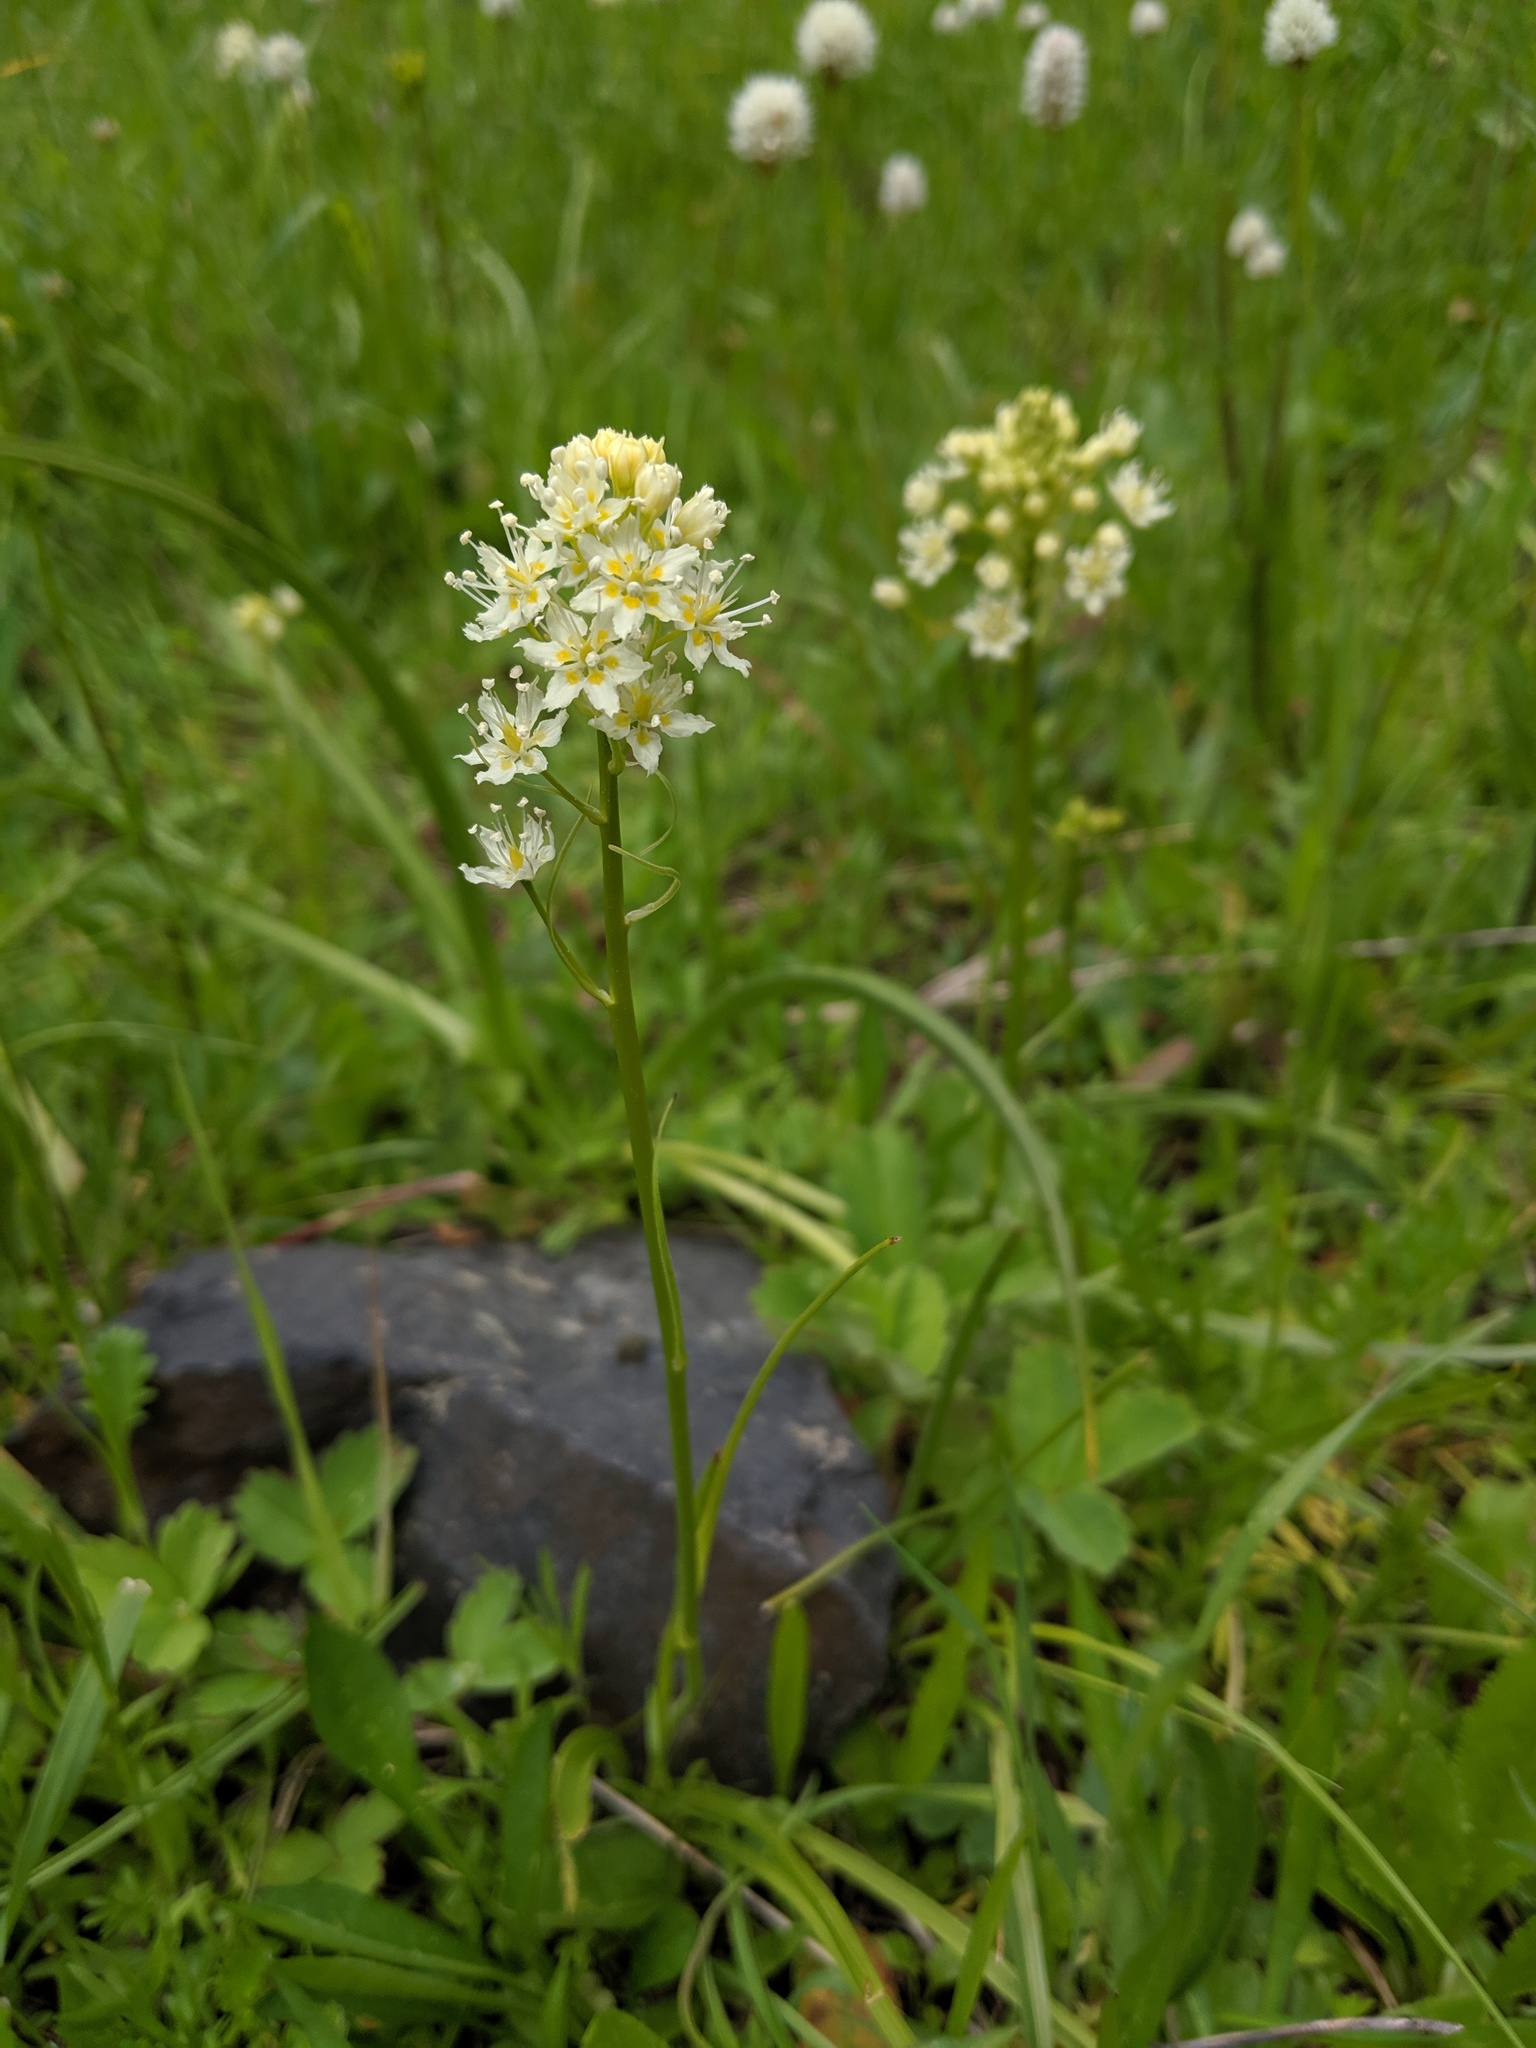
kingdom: Plantae
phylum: Tracheophyta
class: Liliopsida
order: Liliales
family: Melanthiaceae
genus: Toxicoscordion
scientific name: Toxicoscordion venenosum
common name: Meadow death camas
